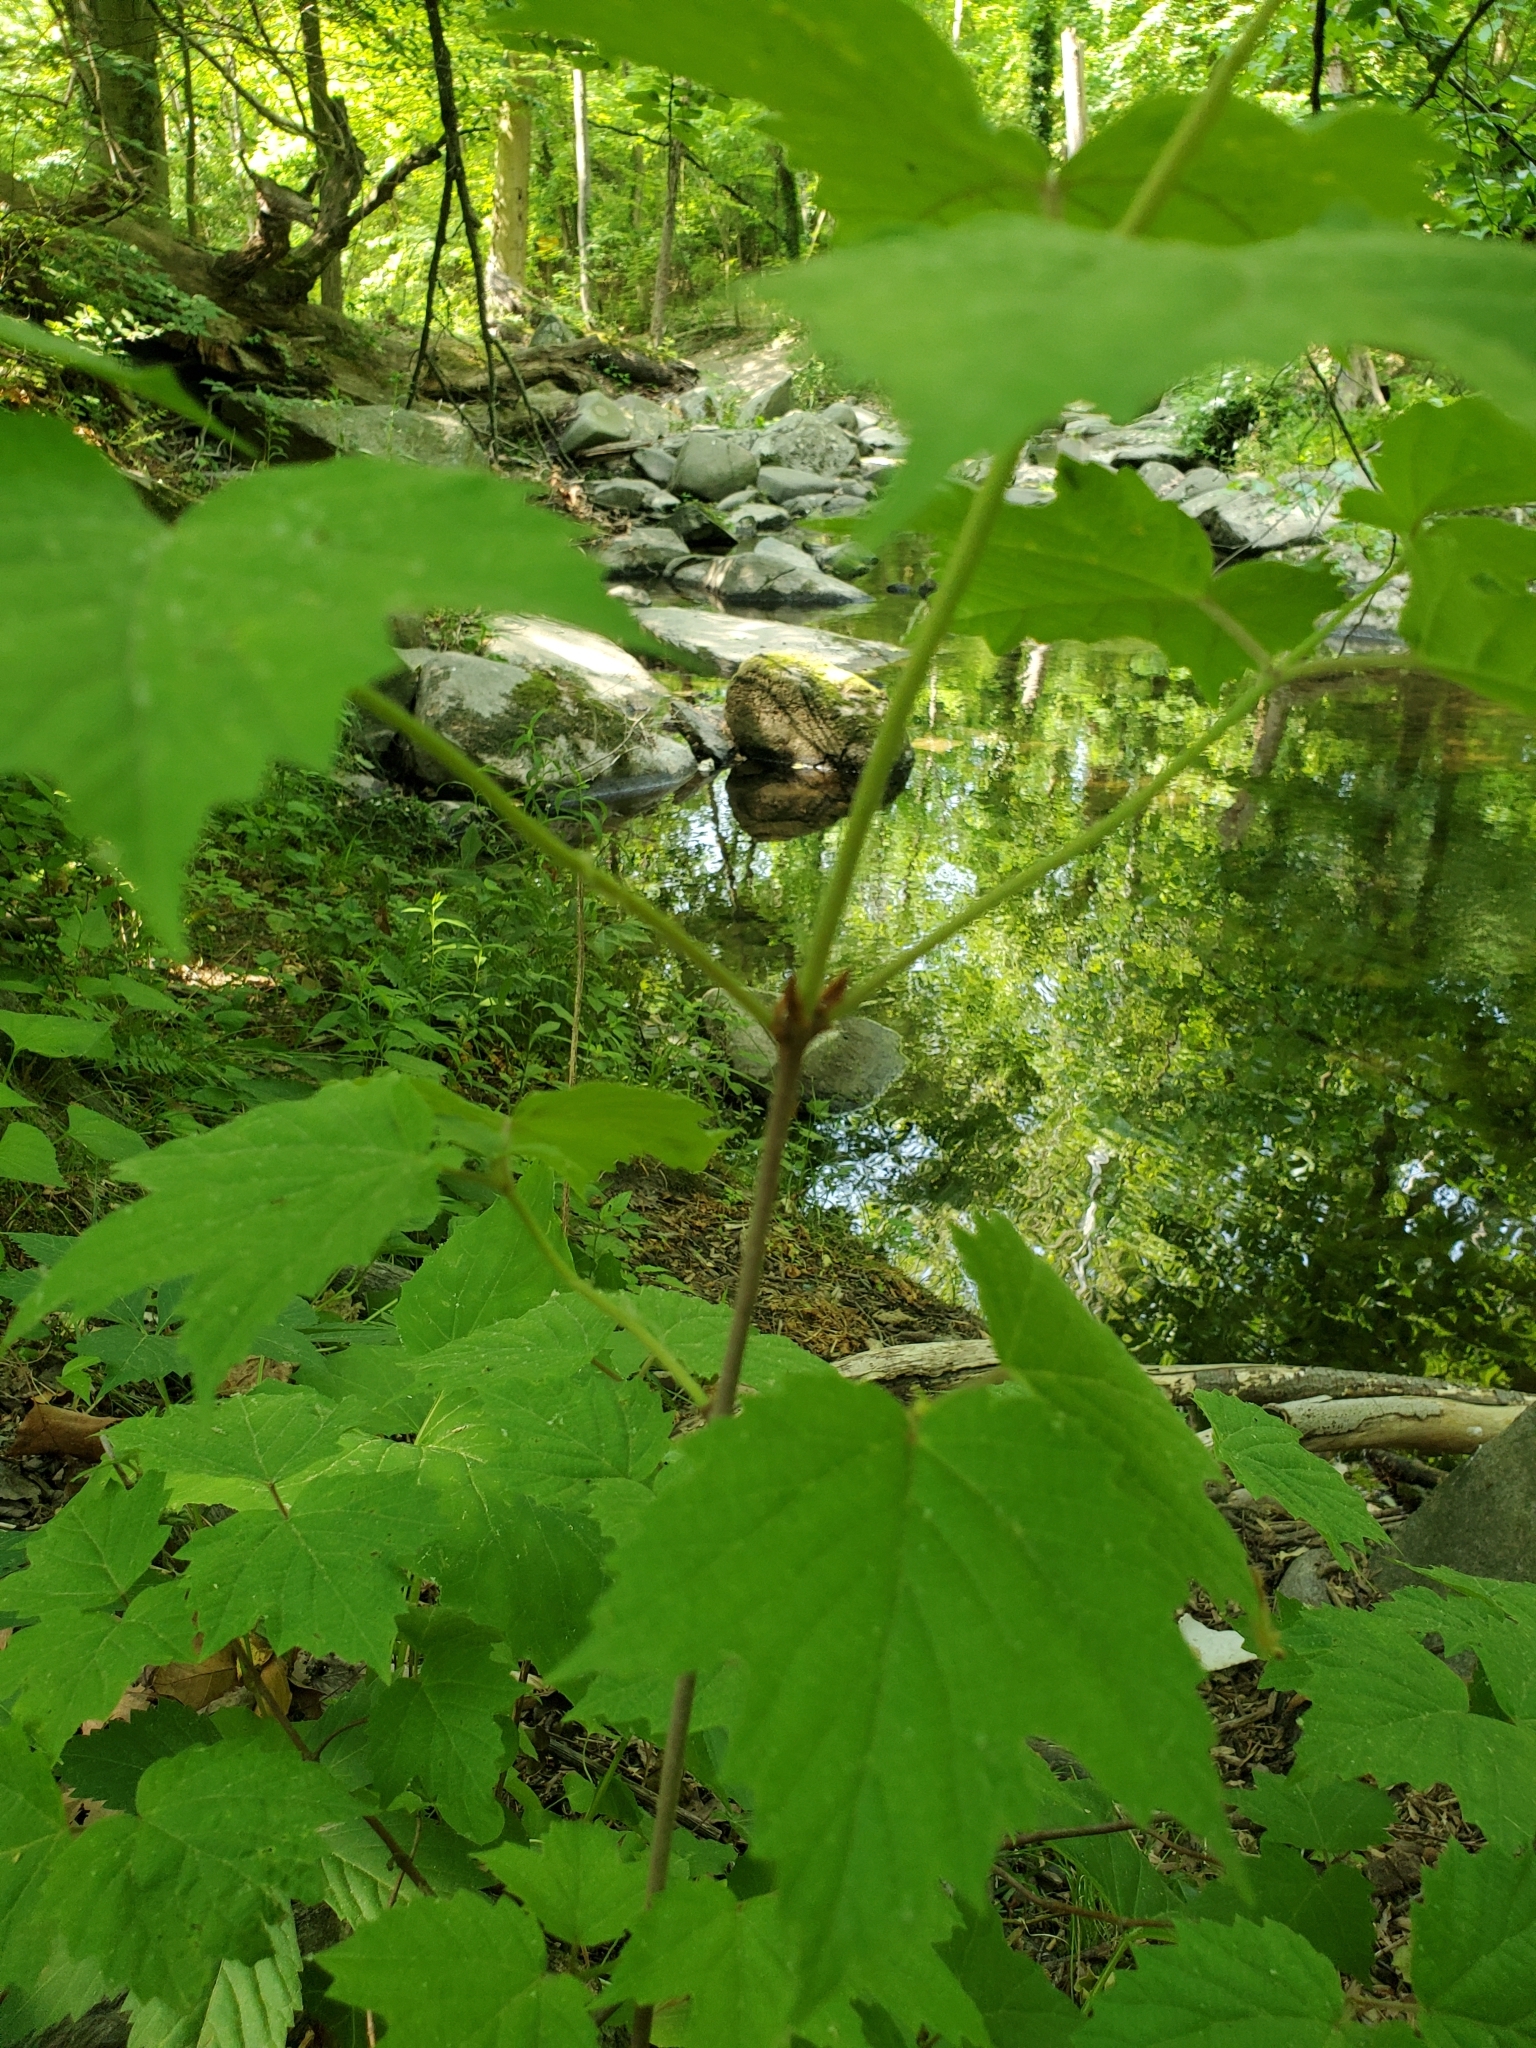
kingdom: Plantae
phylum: Tracheophyta
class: Magnoliopsida
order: Dipsacales
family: Viburnaceae
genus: Viburnum
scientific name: Viburnum acerifolium
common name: Dockmackie
